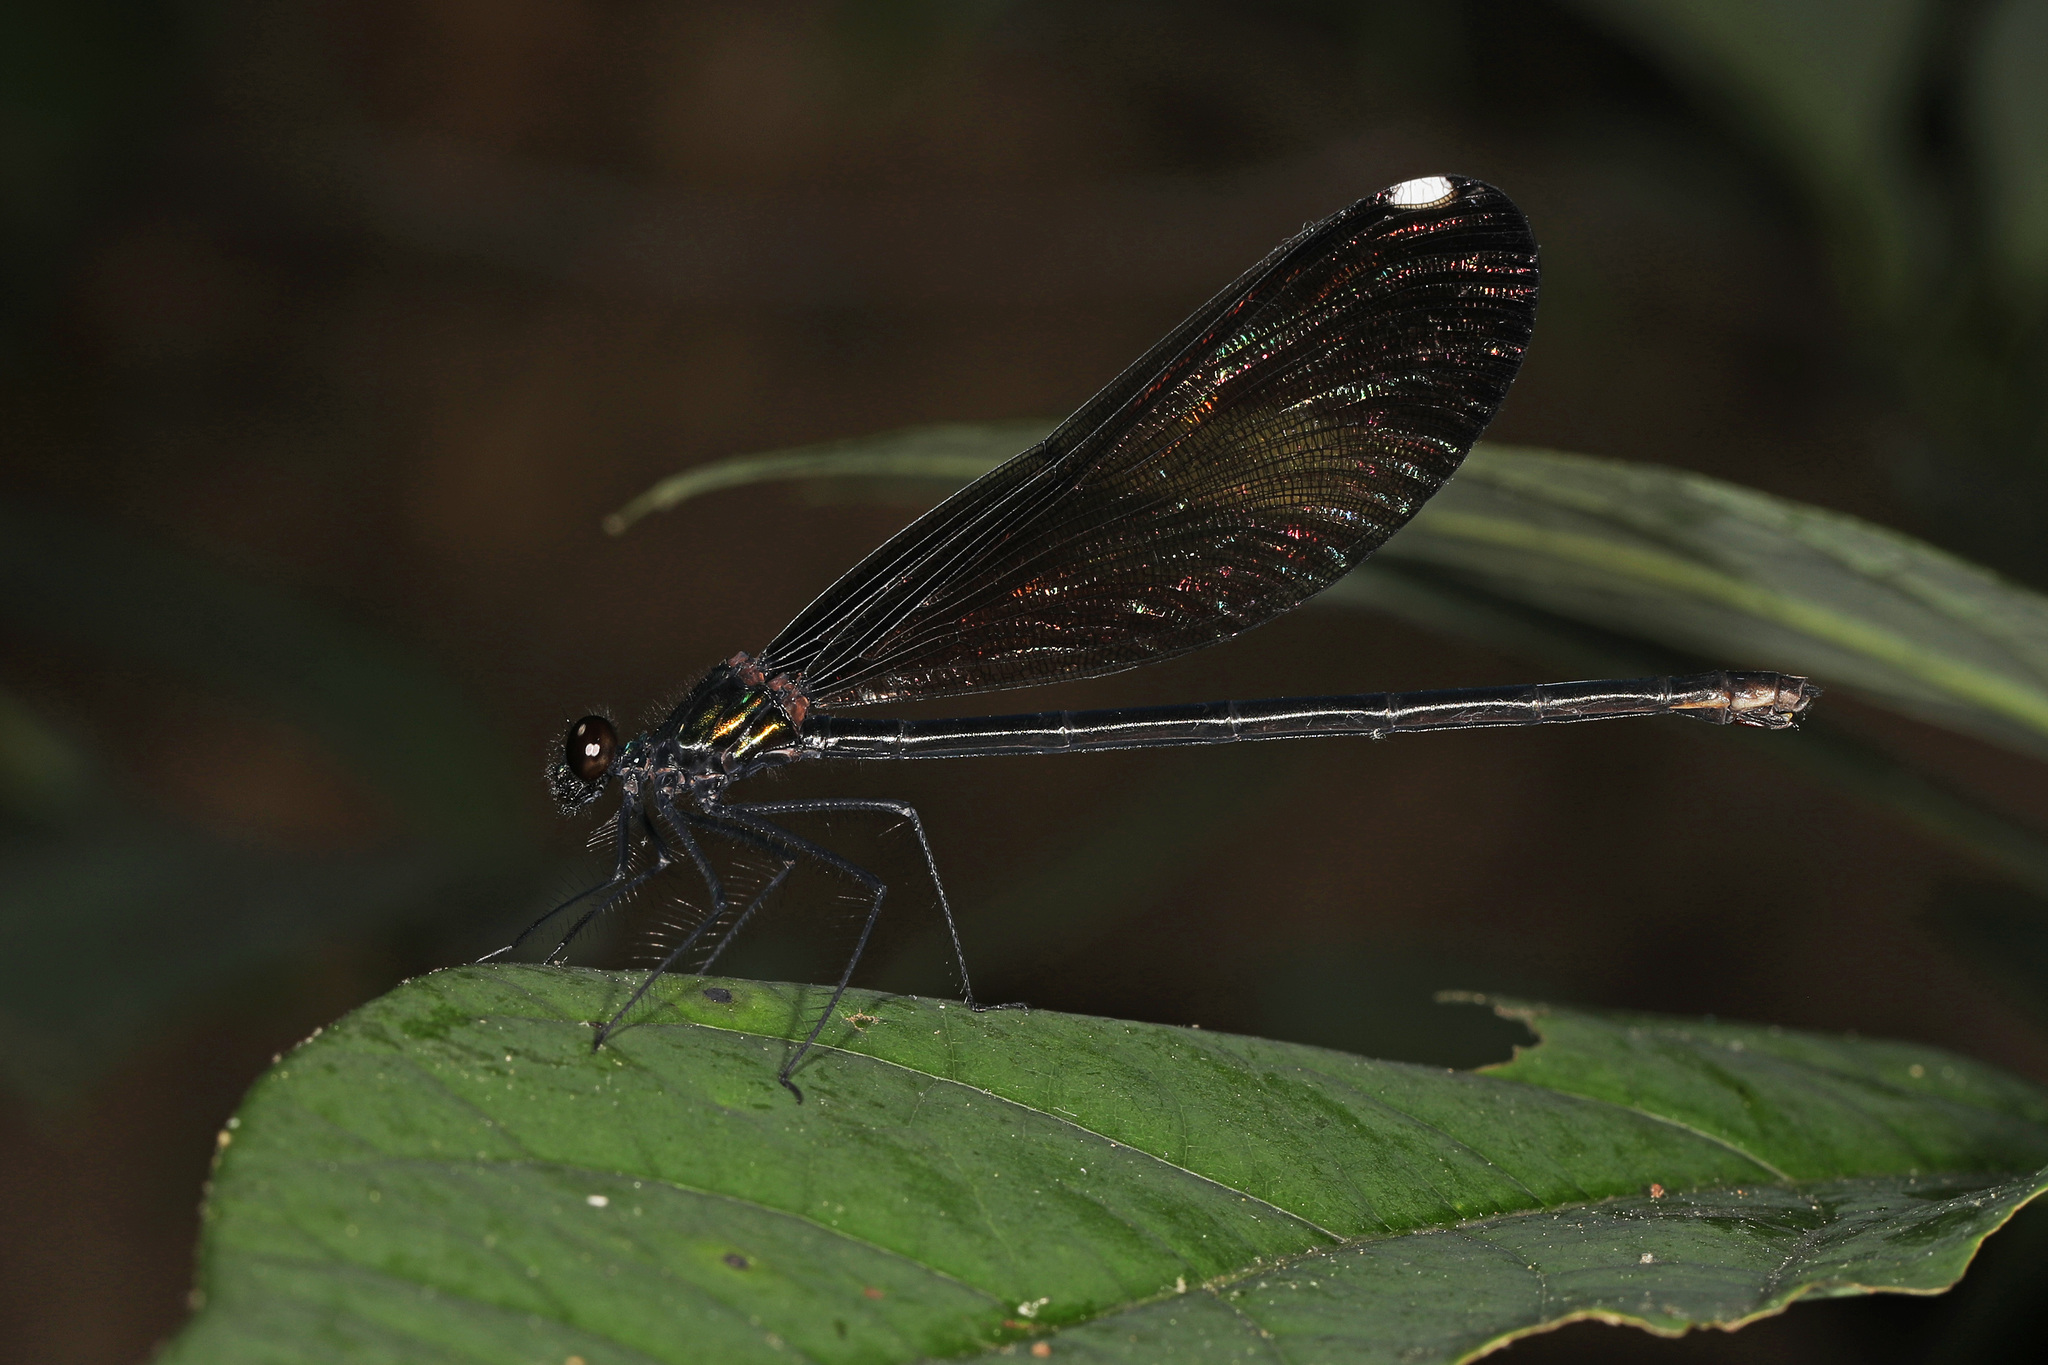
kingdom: Animalia
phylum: Arthropoda
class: Insecta
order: Odonata
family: Calopterygidae
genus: Calopteryx
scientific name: Calopteryx maculata
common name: Ebony jewelwing
